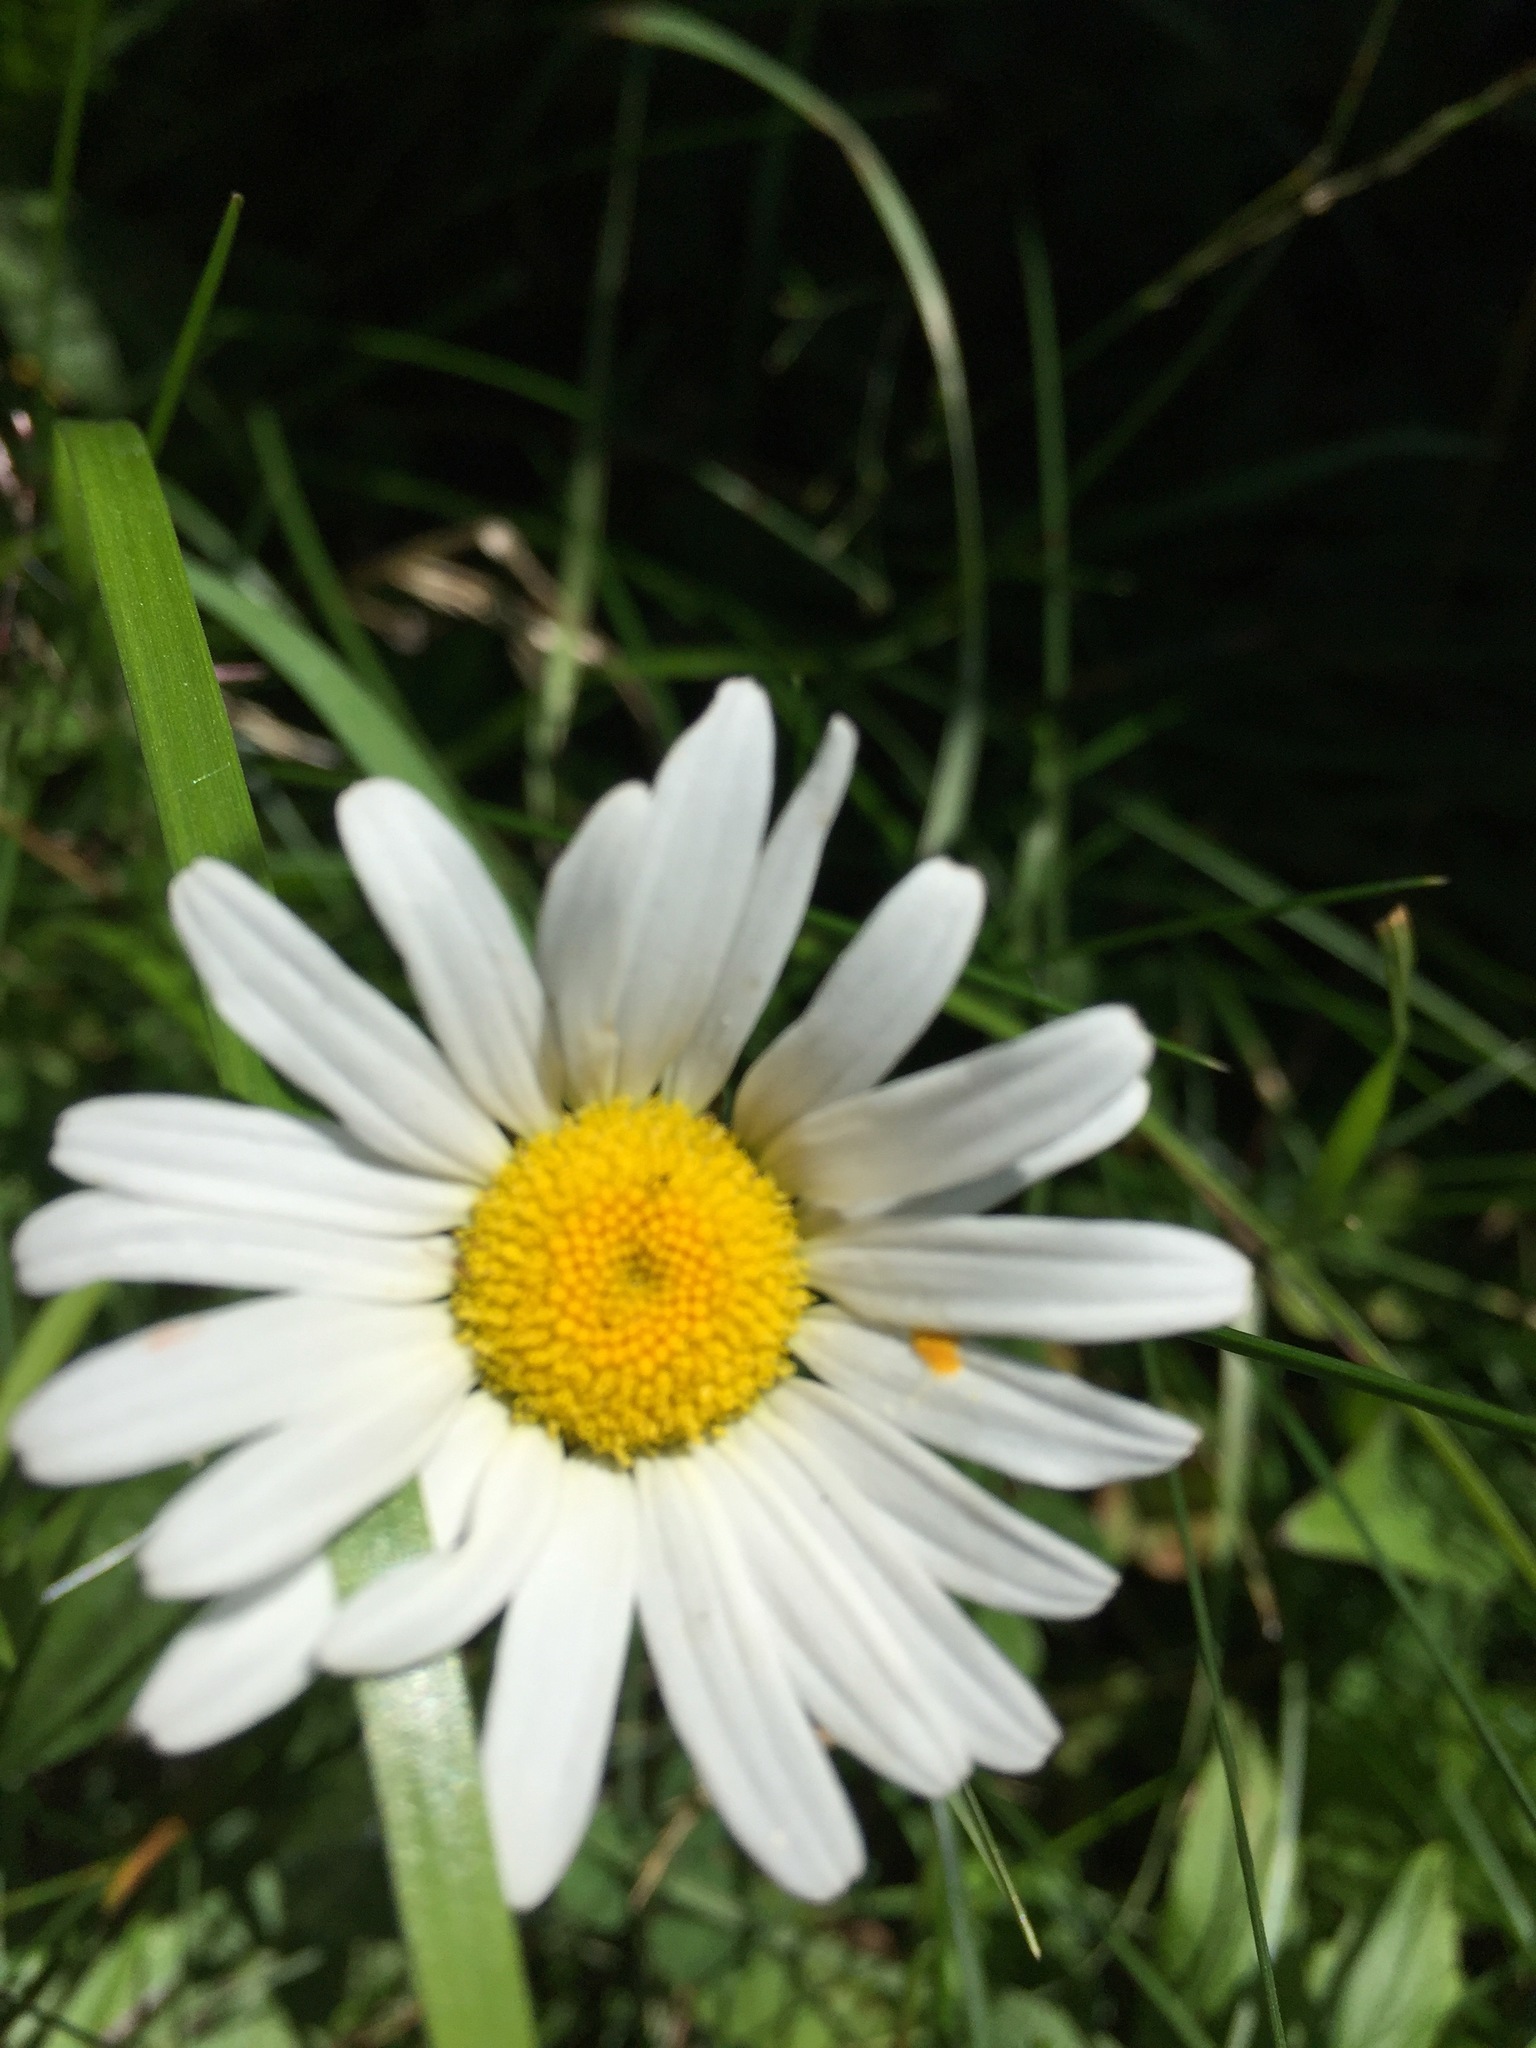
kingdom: Plantae
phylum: Tracheophyta
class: Magnoliopsida
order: Asterales
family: Asteraceae
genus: Leucanthemum
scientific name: Leucanthemum vulgare
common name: Oxeye daisy
